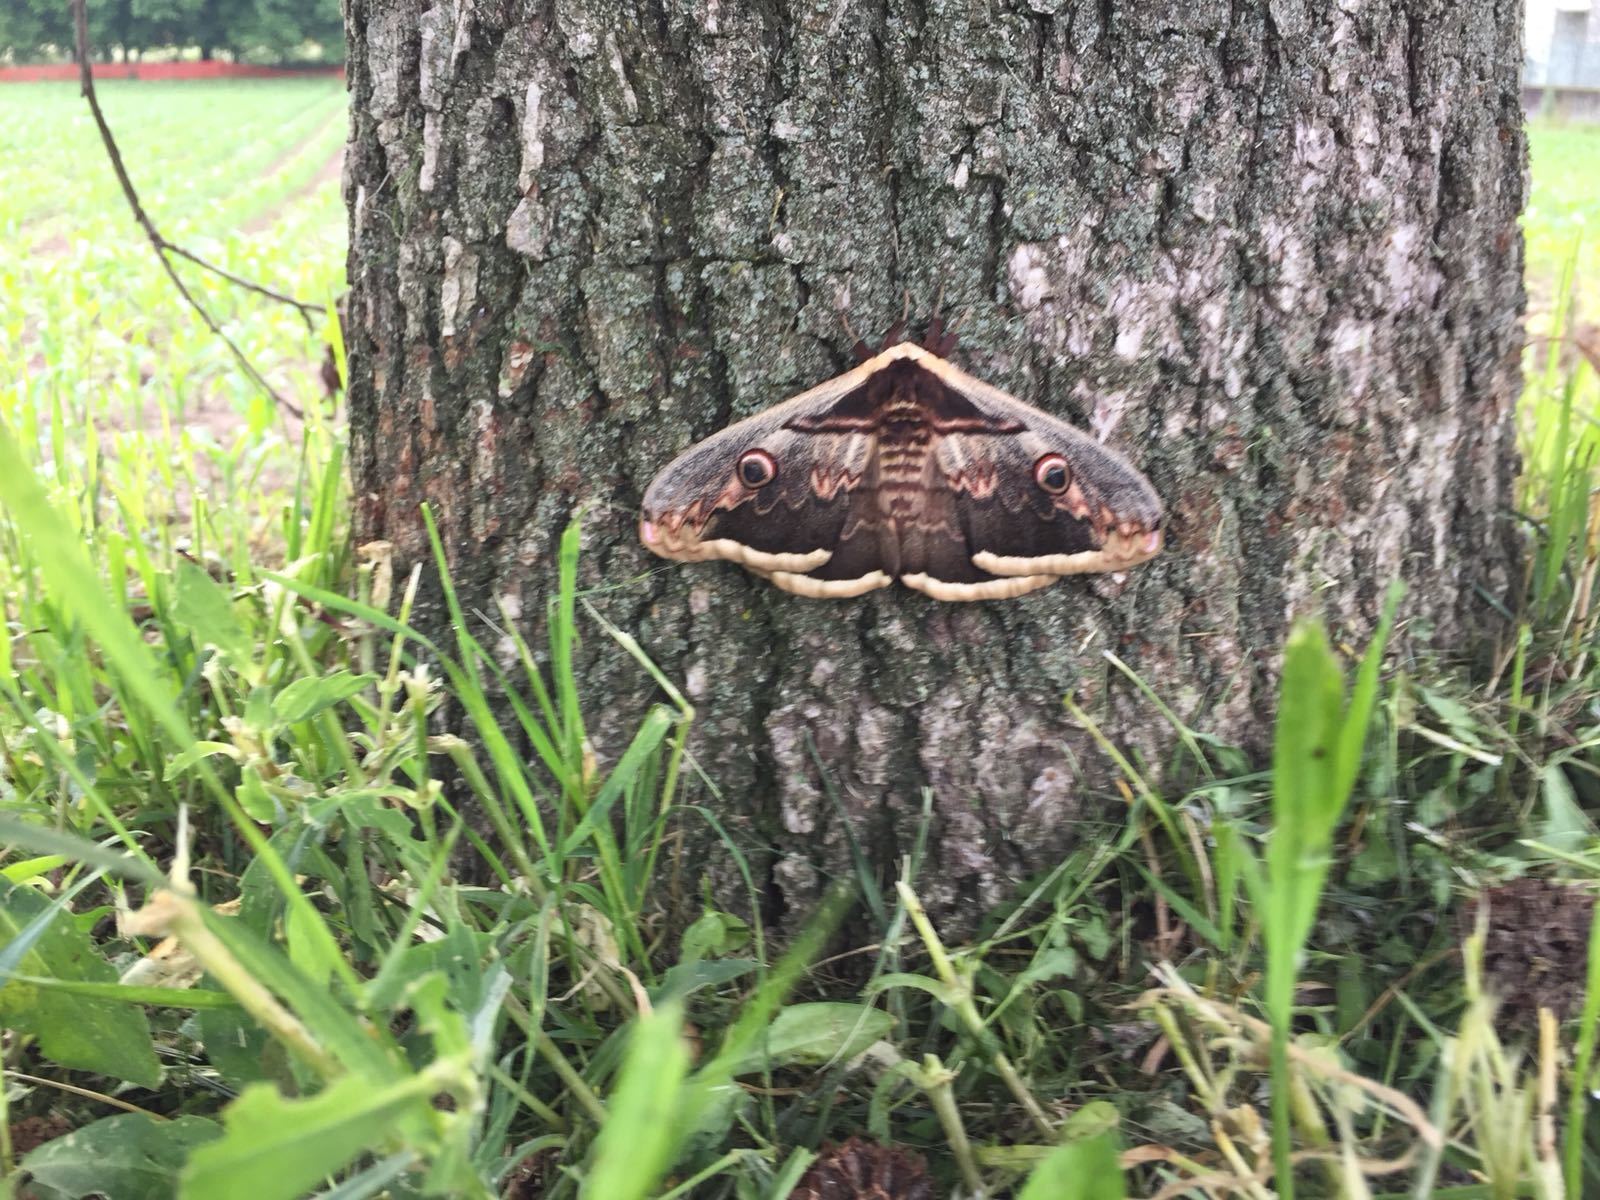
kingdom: Animalia
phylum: Arthropoda
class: Insecta
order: Lepidoptera
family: Saturniidae
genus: Saturnia
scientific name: Saturnia pyri
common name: Great peacock moth
